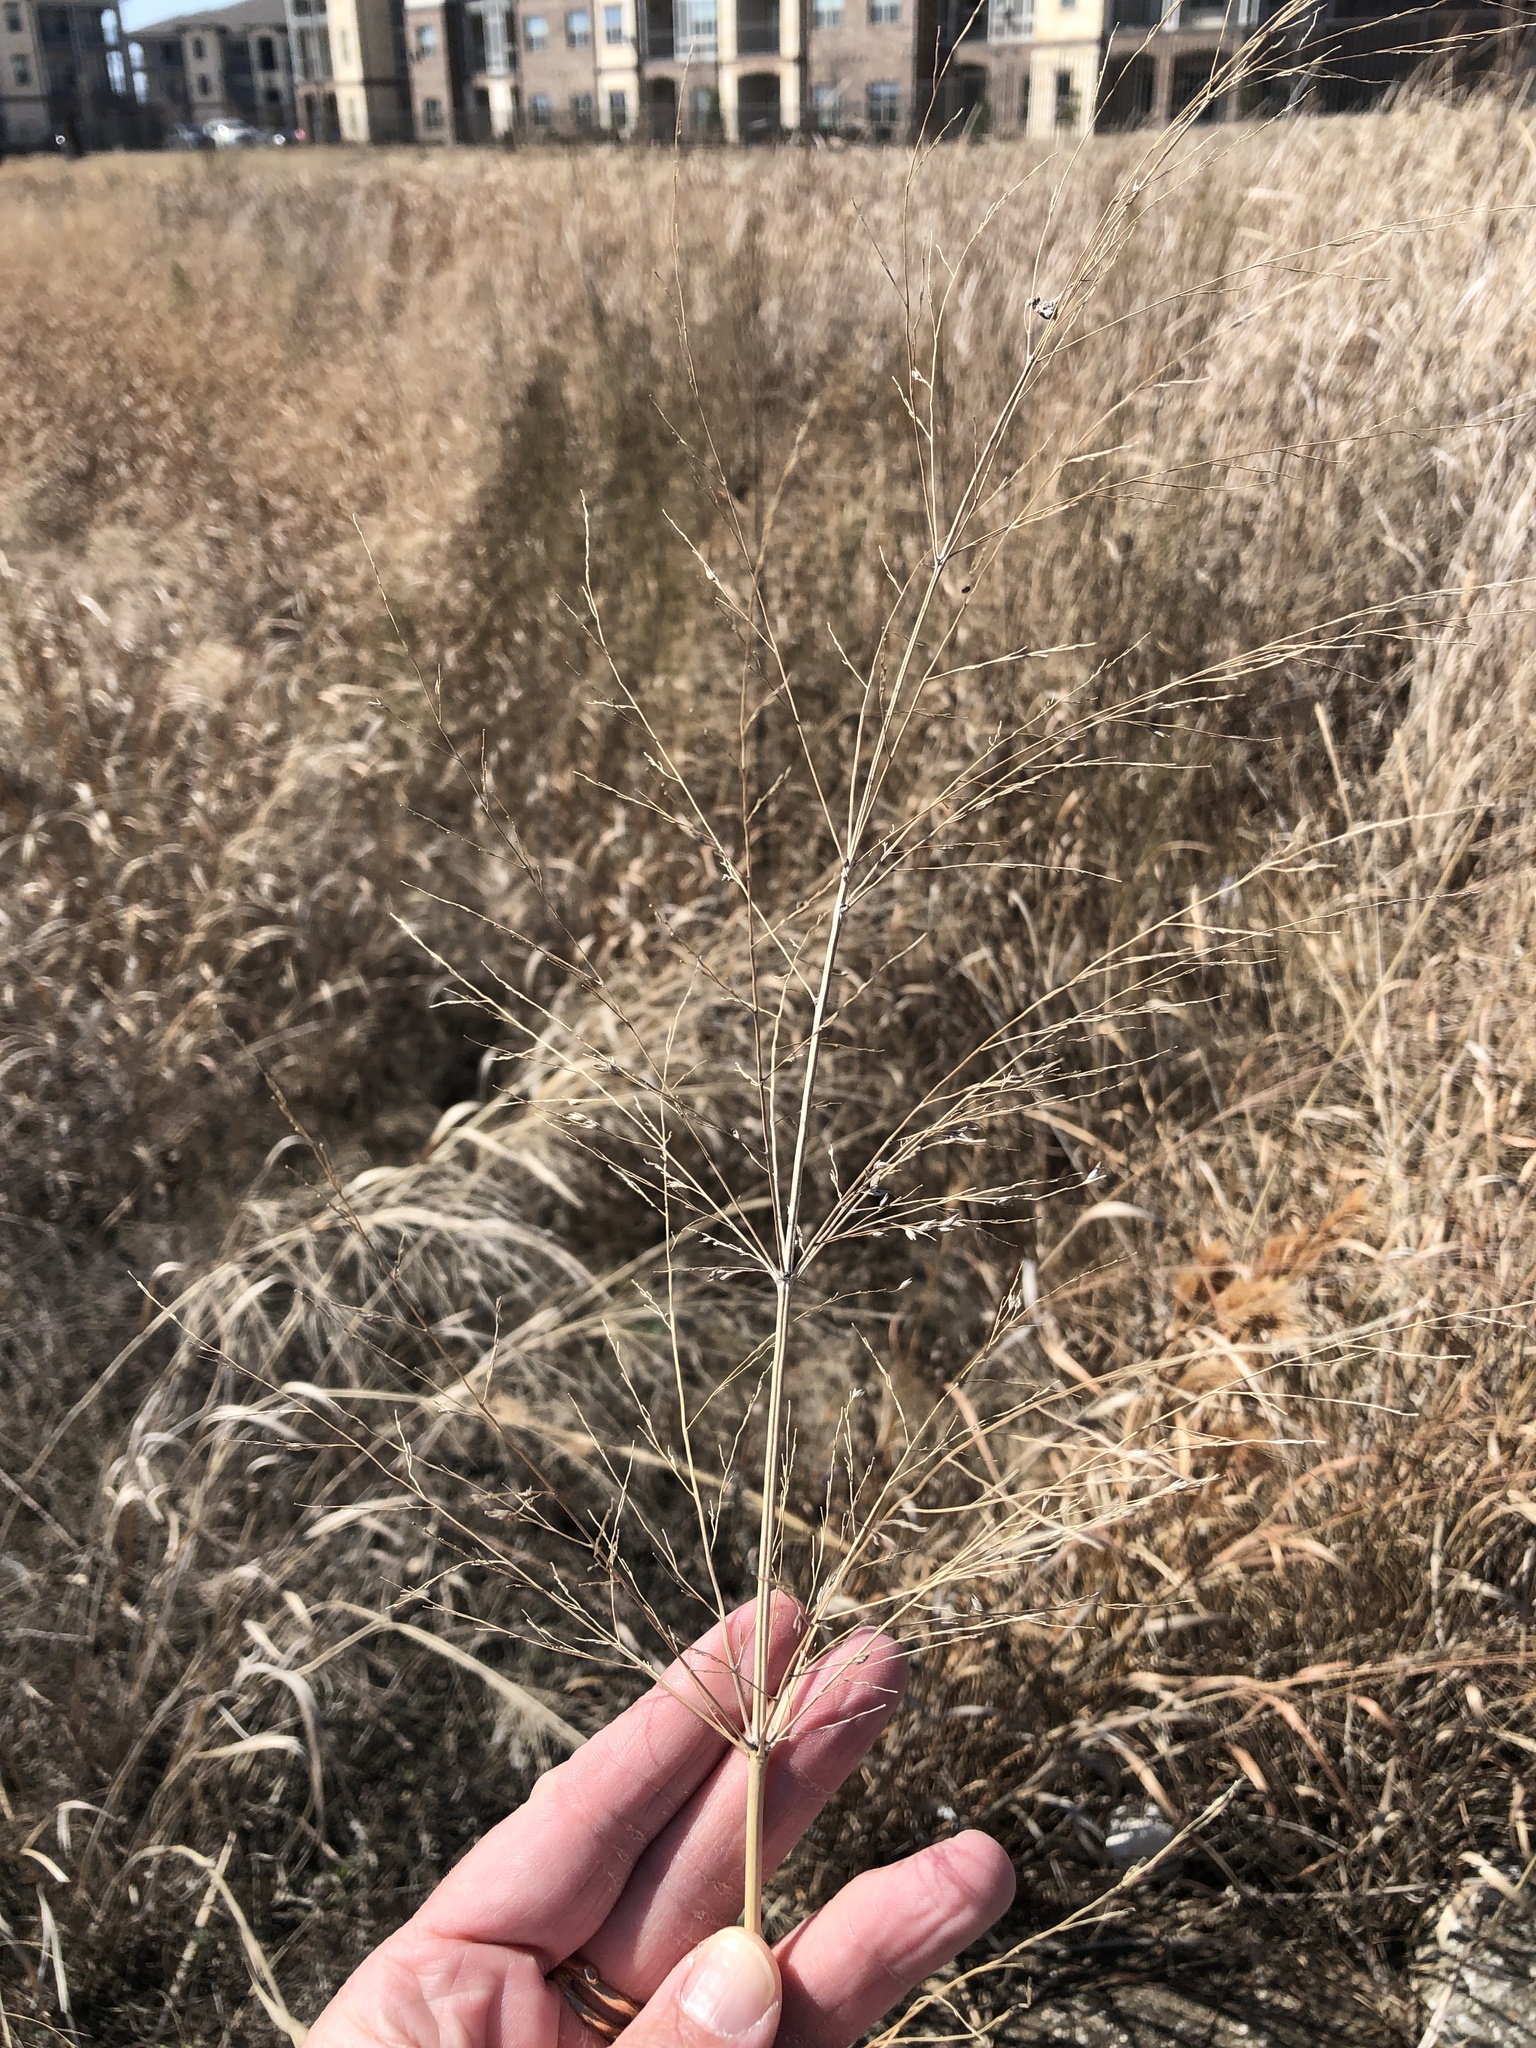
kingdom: Plantae
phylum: Tracheophyta
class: Liliopsida
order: Poales
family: Poaceae
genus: Panicum
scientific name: Panicum virgatum
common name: Switchgrass
